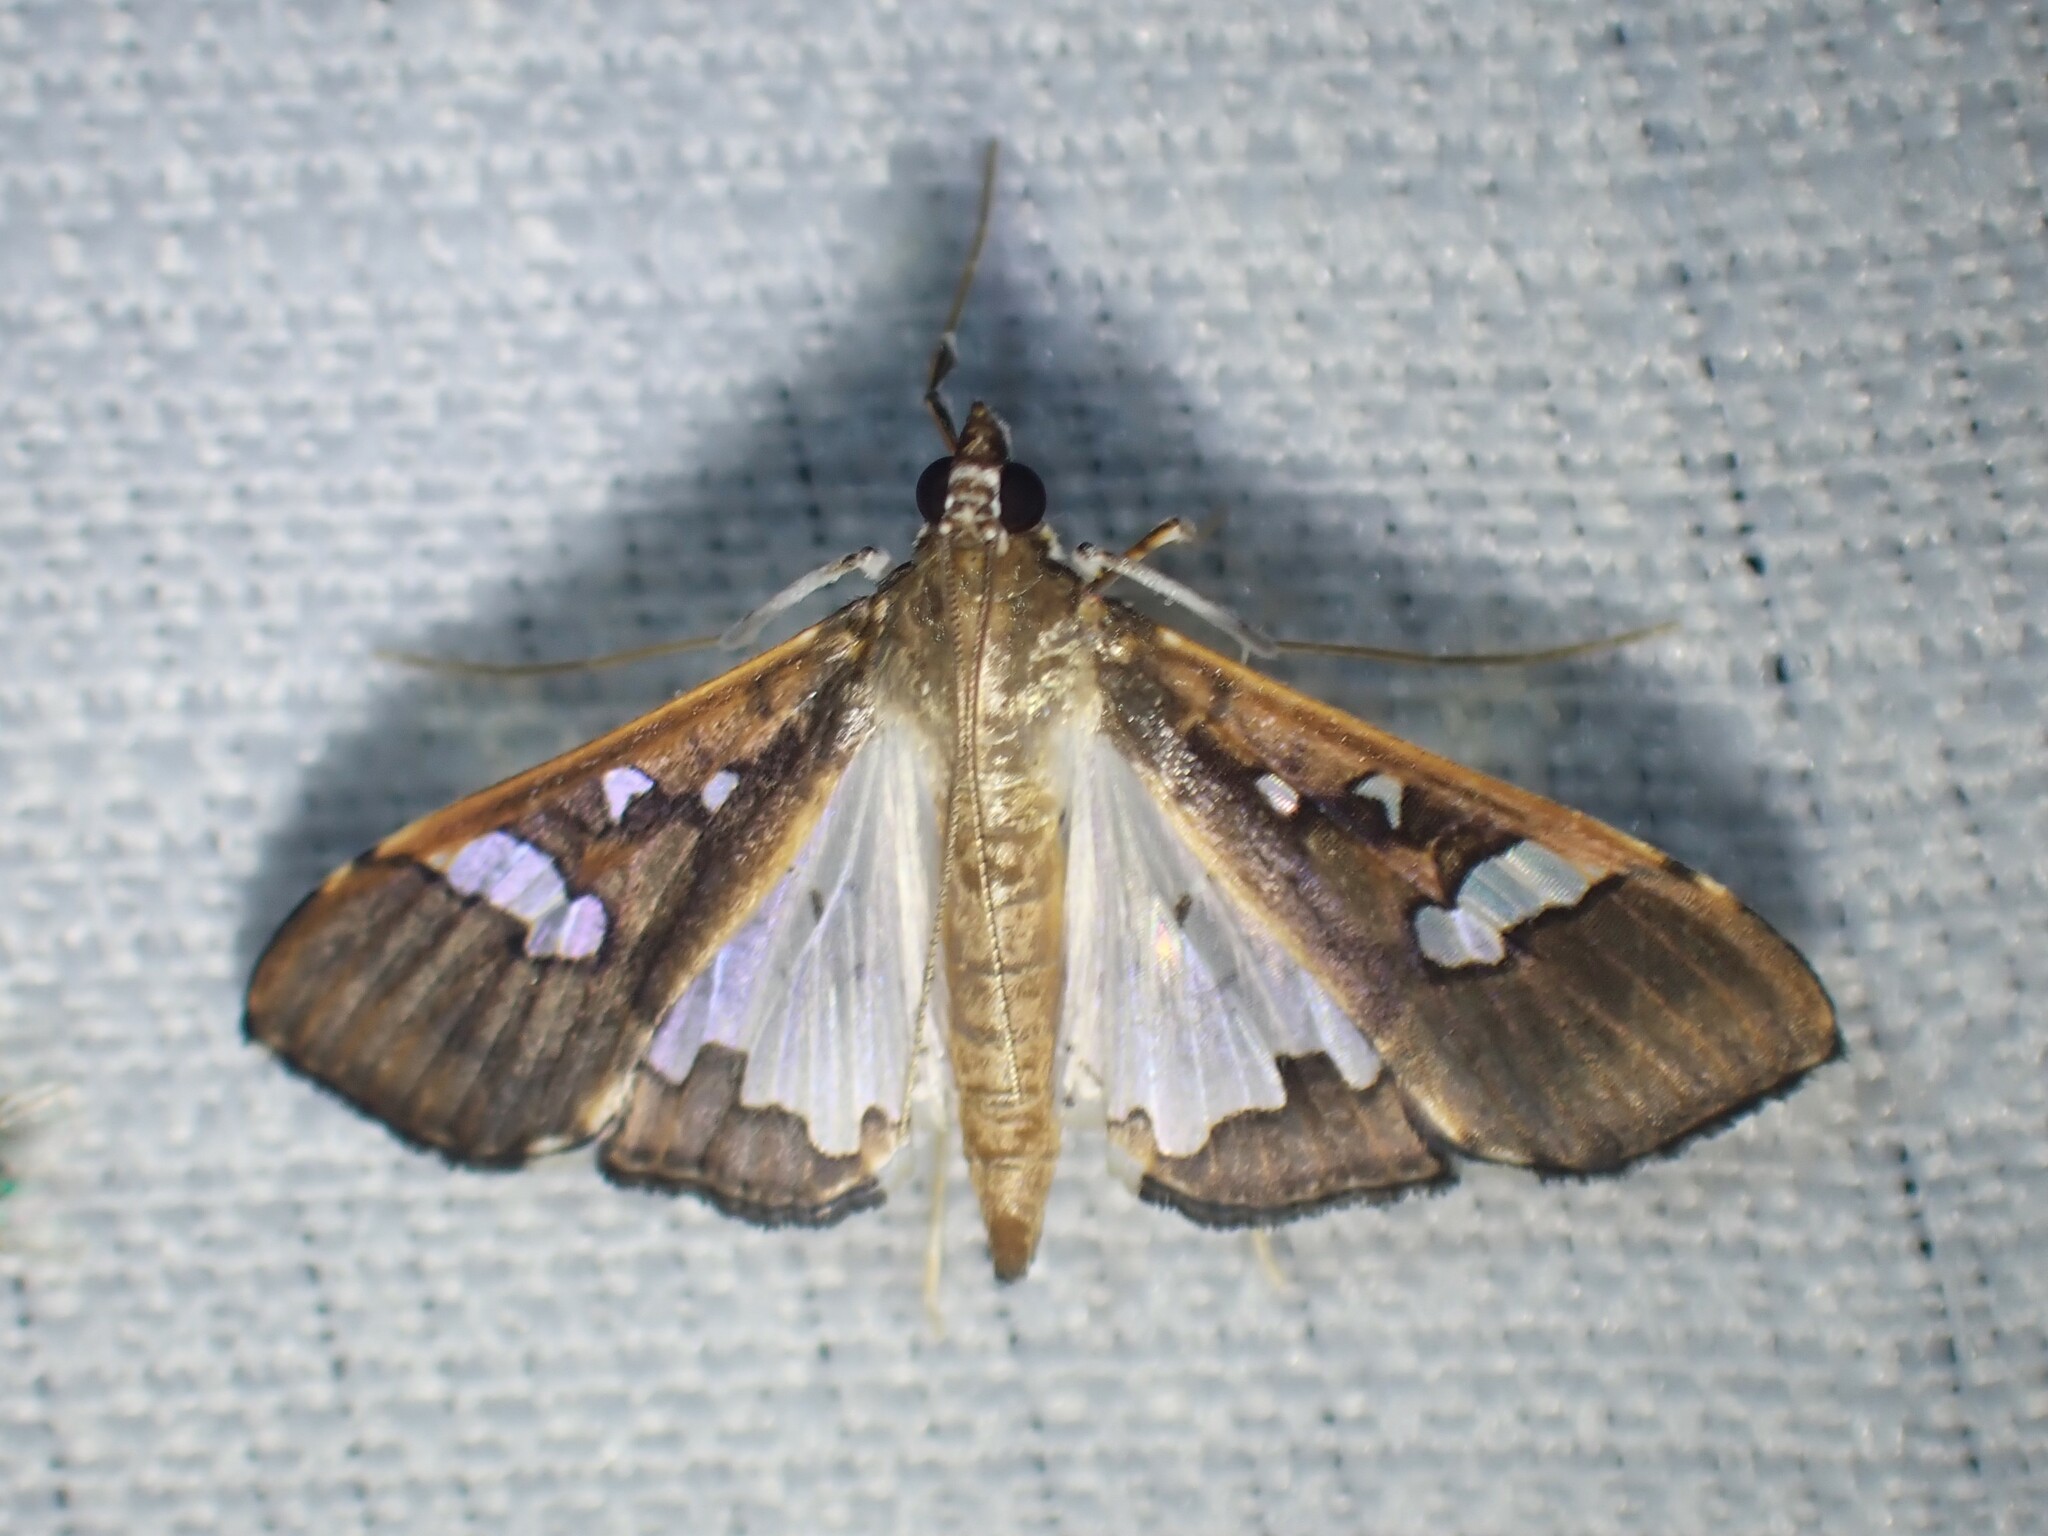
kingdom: Animalia
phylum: Arthropoda
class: Insecta
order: Lepidoptera
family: Crambidae
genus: Maruca
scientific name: Maruca vitrata
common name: Maruca pod borer
